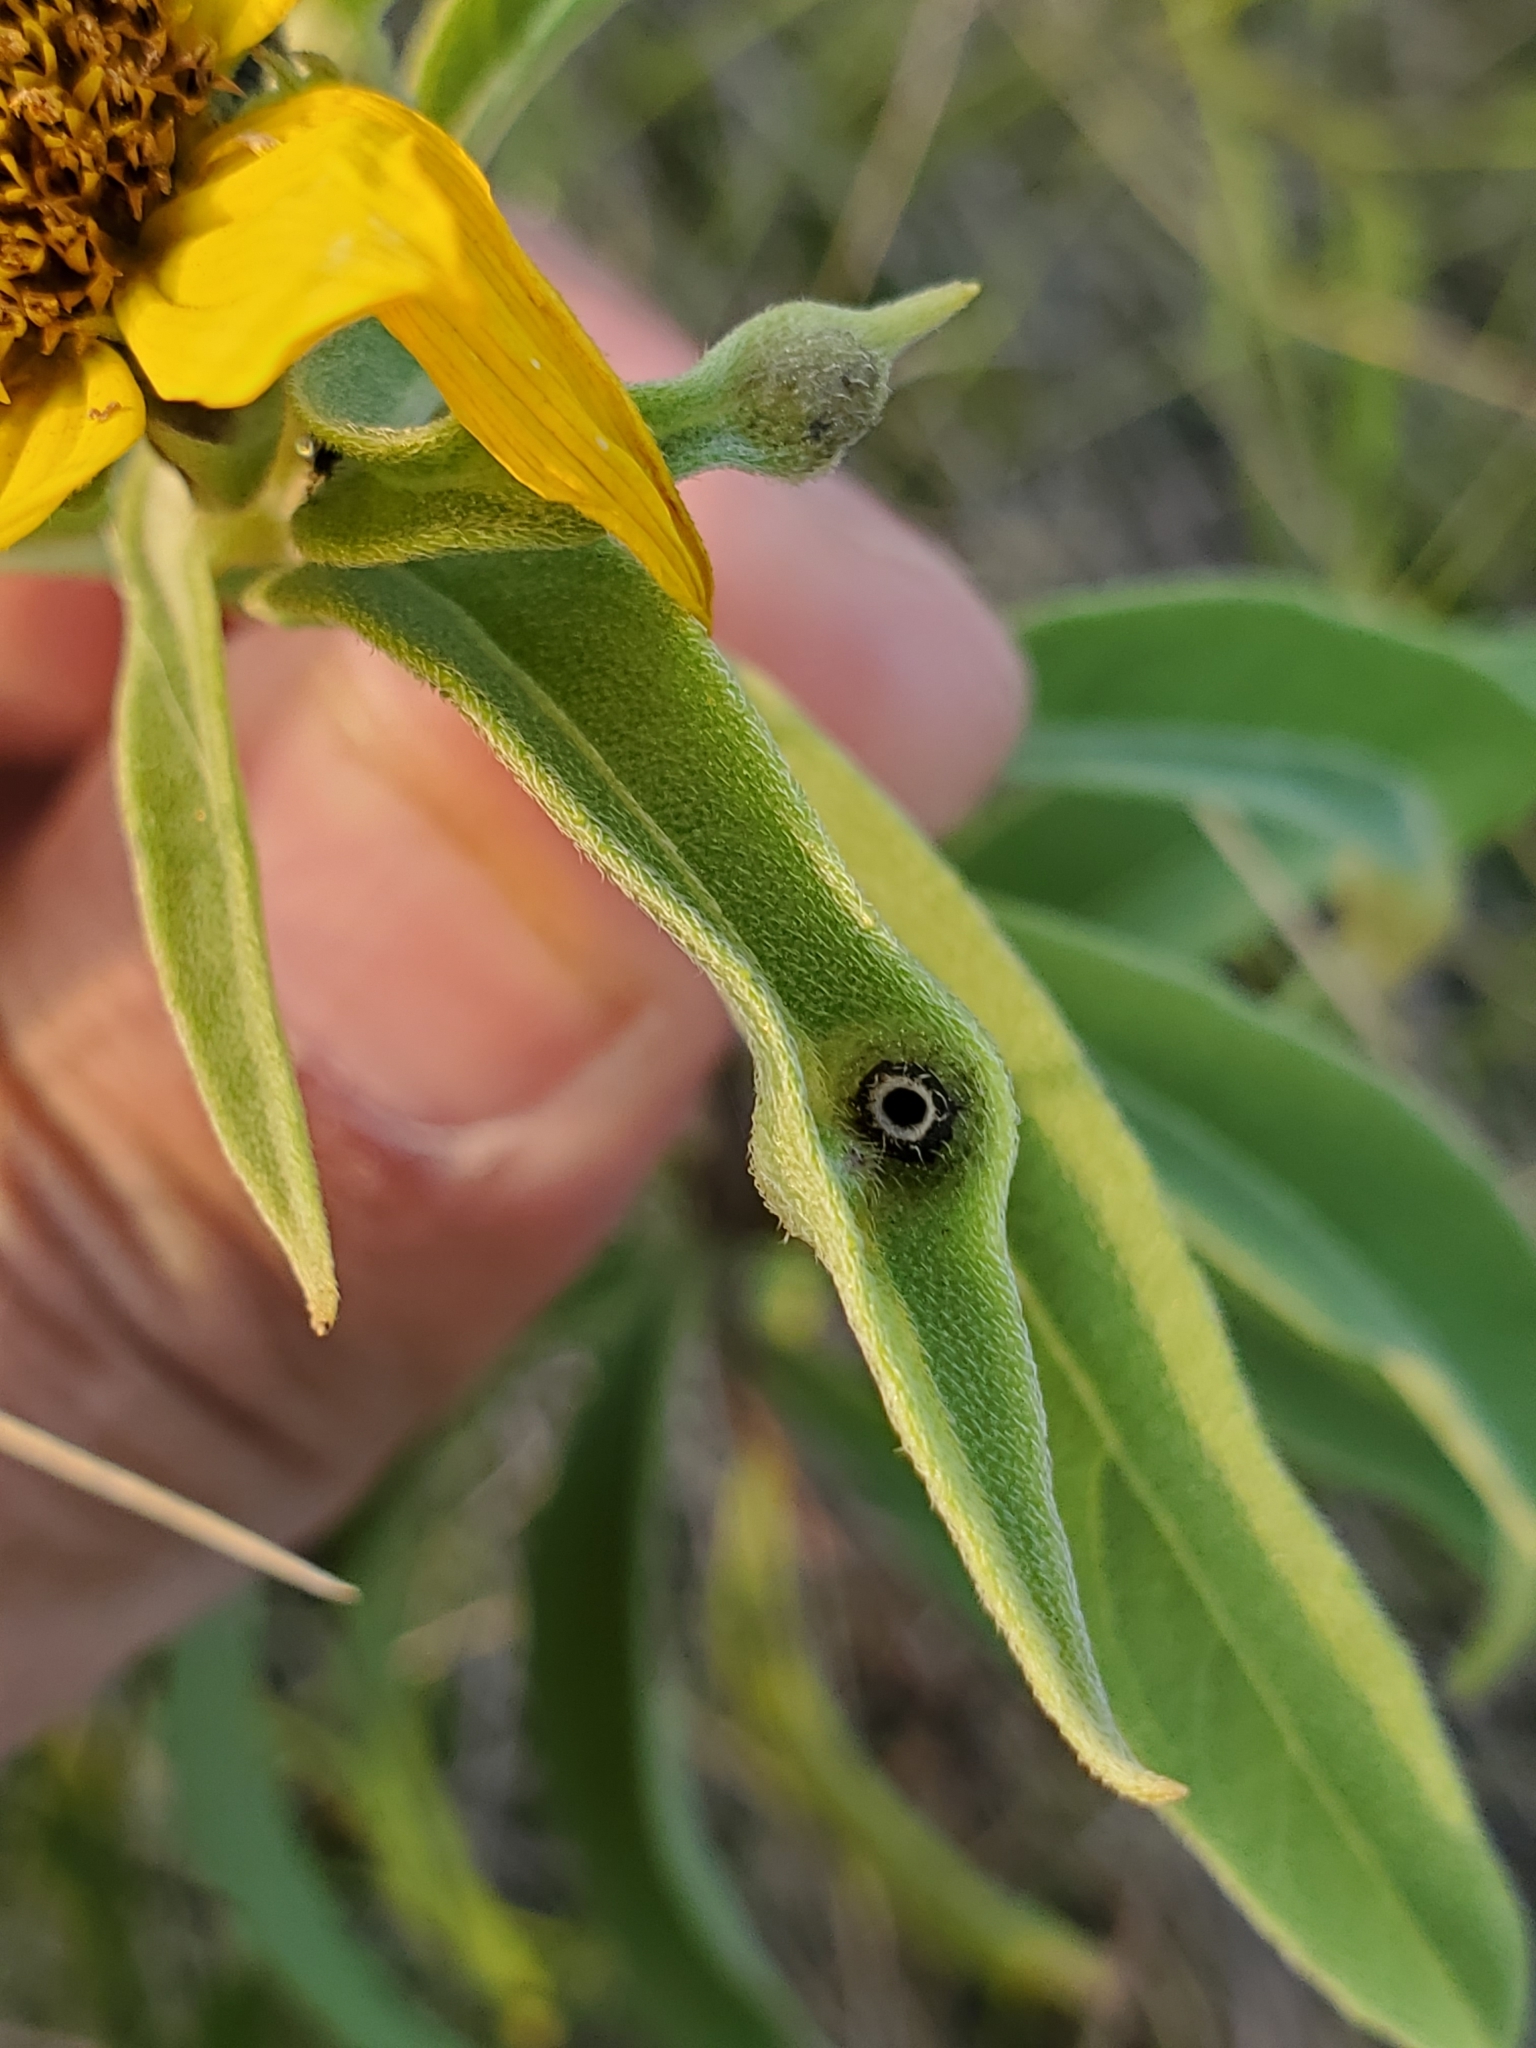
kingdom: Animalia
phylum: Arthropoda
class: Insecta
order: Diptera
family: Cecidomyiidae
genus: Pilodiplosis
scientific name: Pilodiplosis helianthibulla
